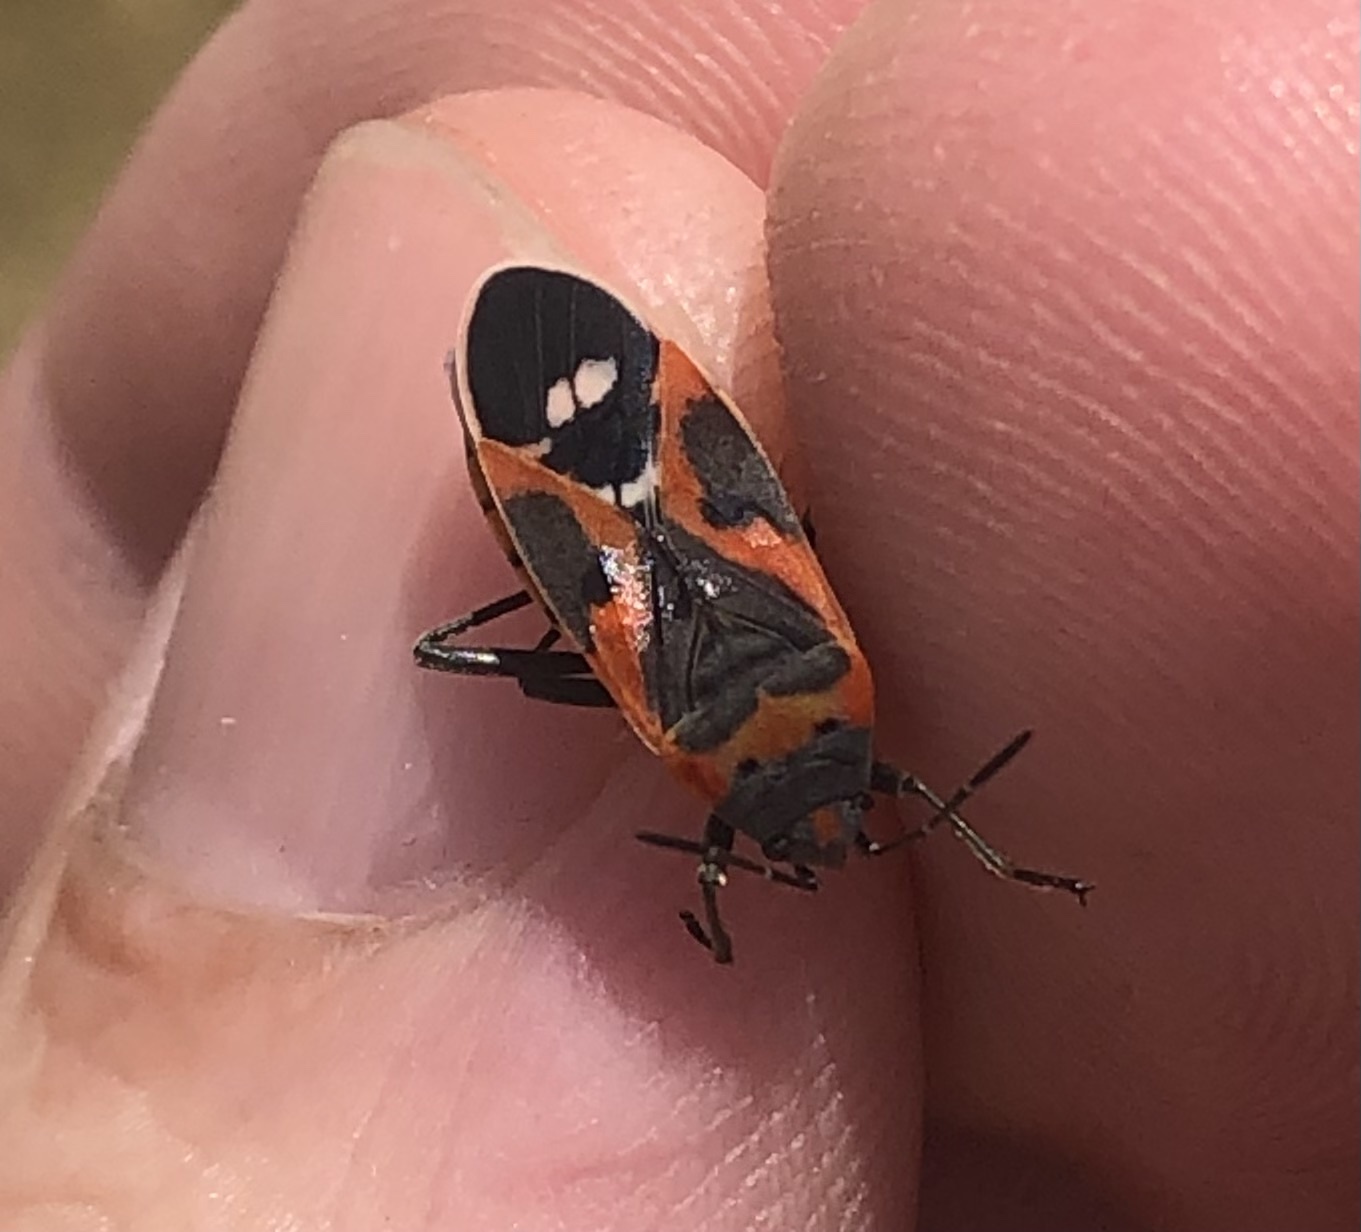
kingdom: Animalia
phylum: Arthropoda
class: Insecta
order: Hemiptera
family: Lygaeidae
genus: Lygaeus
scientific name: Lygaeus kalmii
